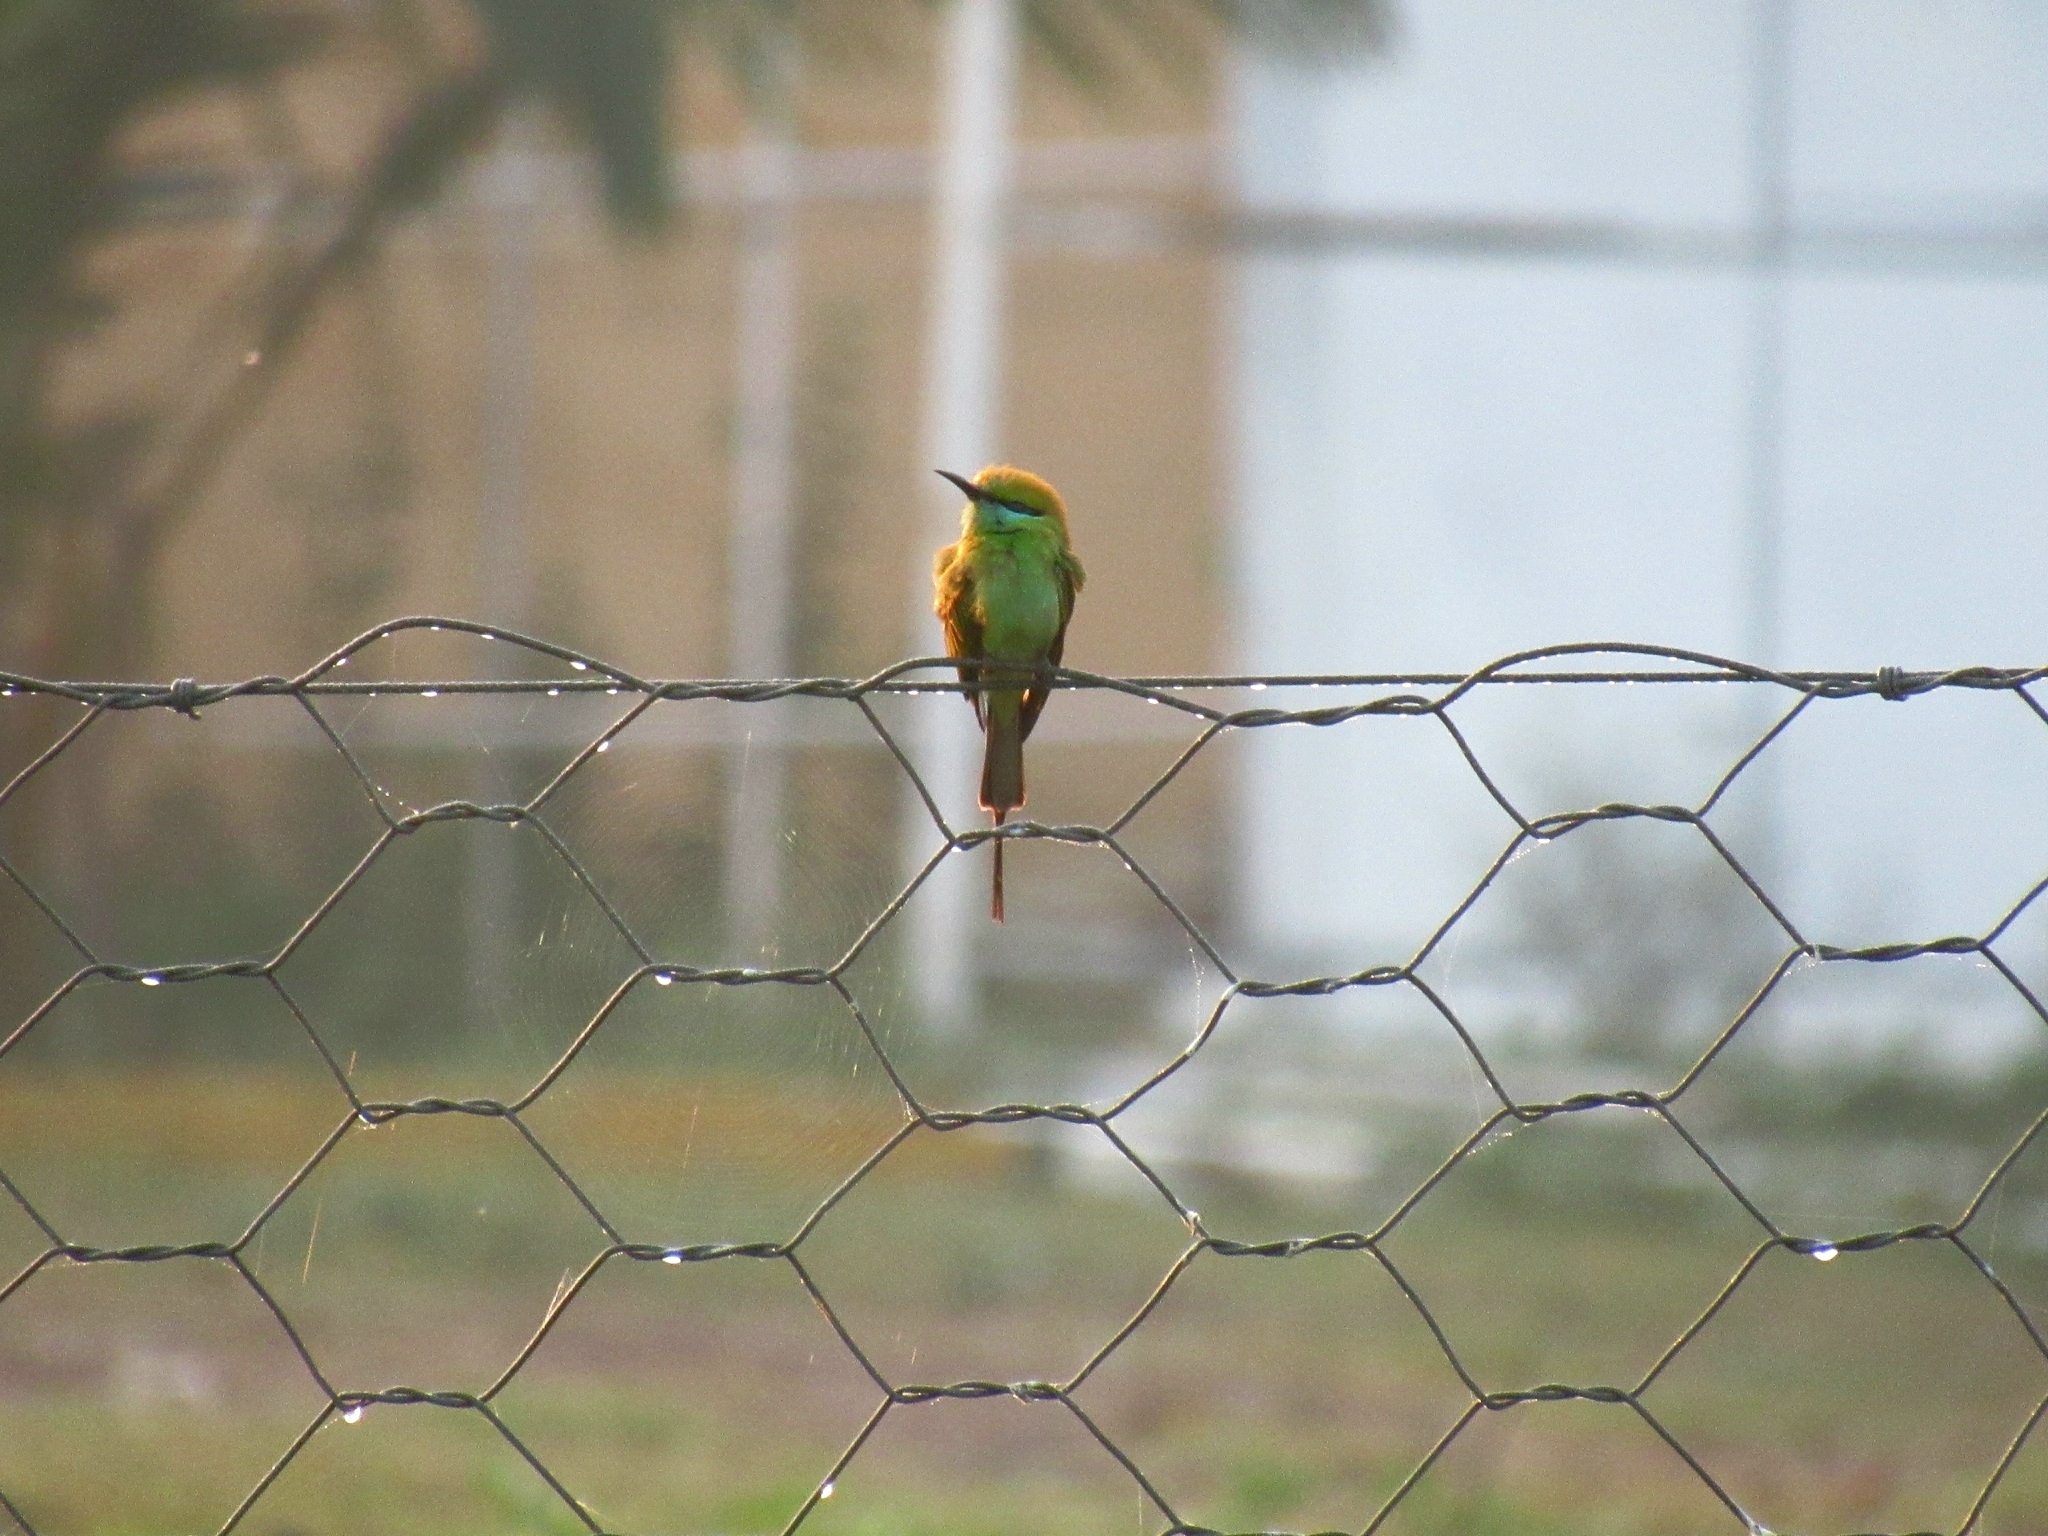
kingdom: Animalia
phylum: Chordata
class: Aves
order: Coraciiformes
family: Meropidae
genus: Merops
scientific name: Merops orientalis
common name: Green bee-eater
